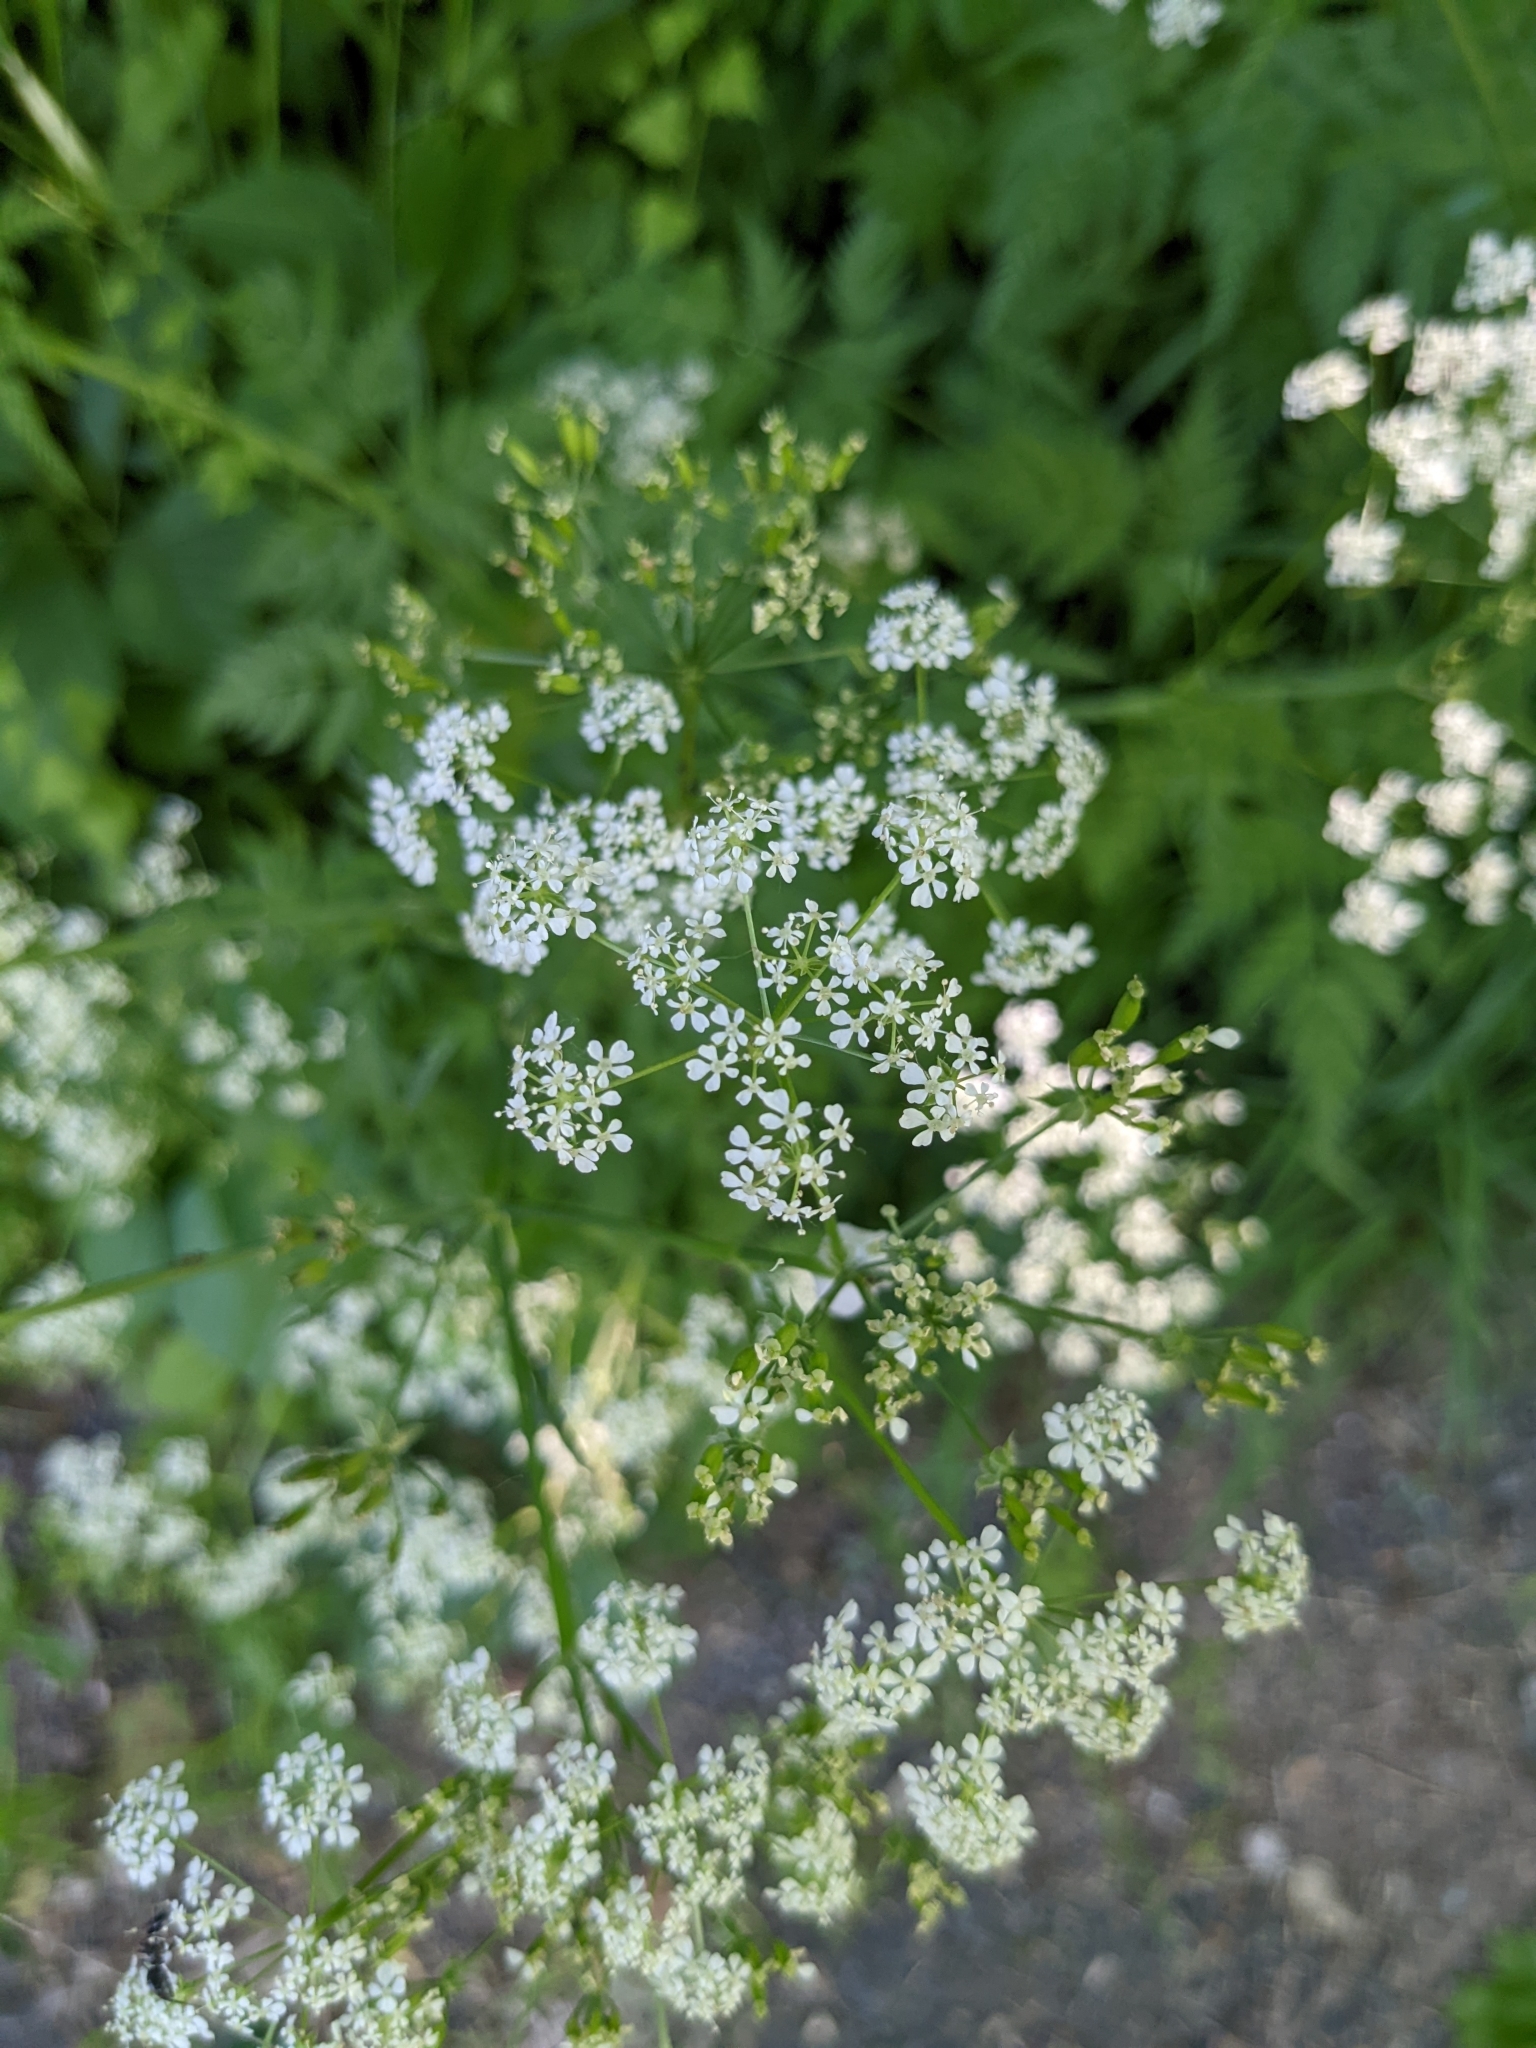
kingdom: Plantae
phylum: Tracheophyta
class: Magnoliopsida
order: Apiales
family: Apiaceae
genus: Anthriscus
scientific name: Anthriscus sylvestris
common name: Cow parsley
